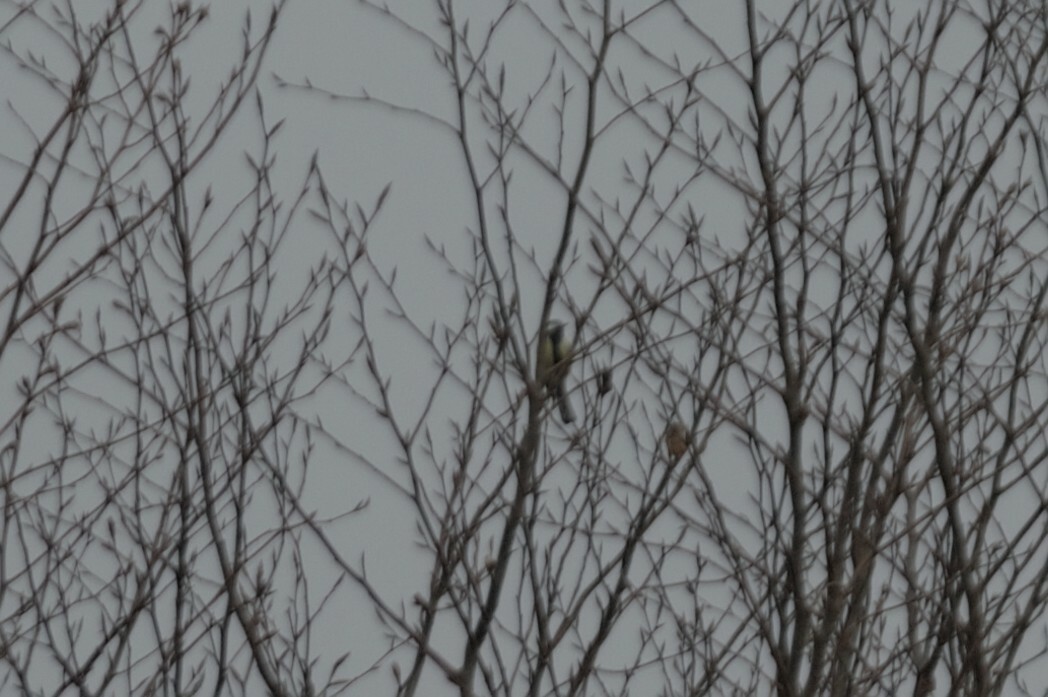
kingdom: Animalia
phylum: Chordata
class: Aves
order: Passeriformes
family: Paridae
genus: Parus
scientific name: Parus major
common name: Great tit
